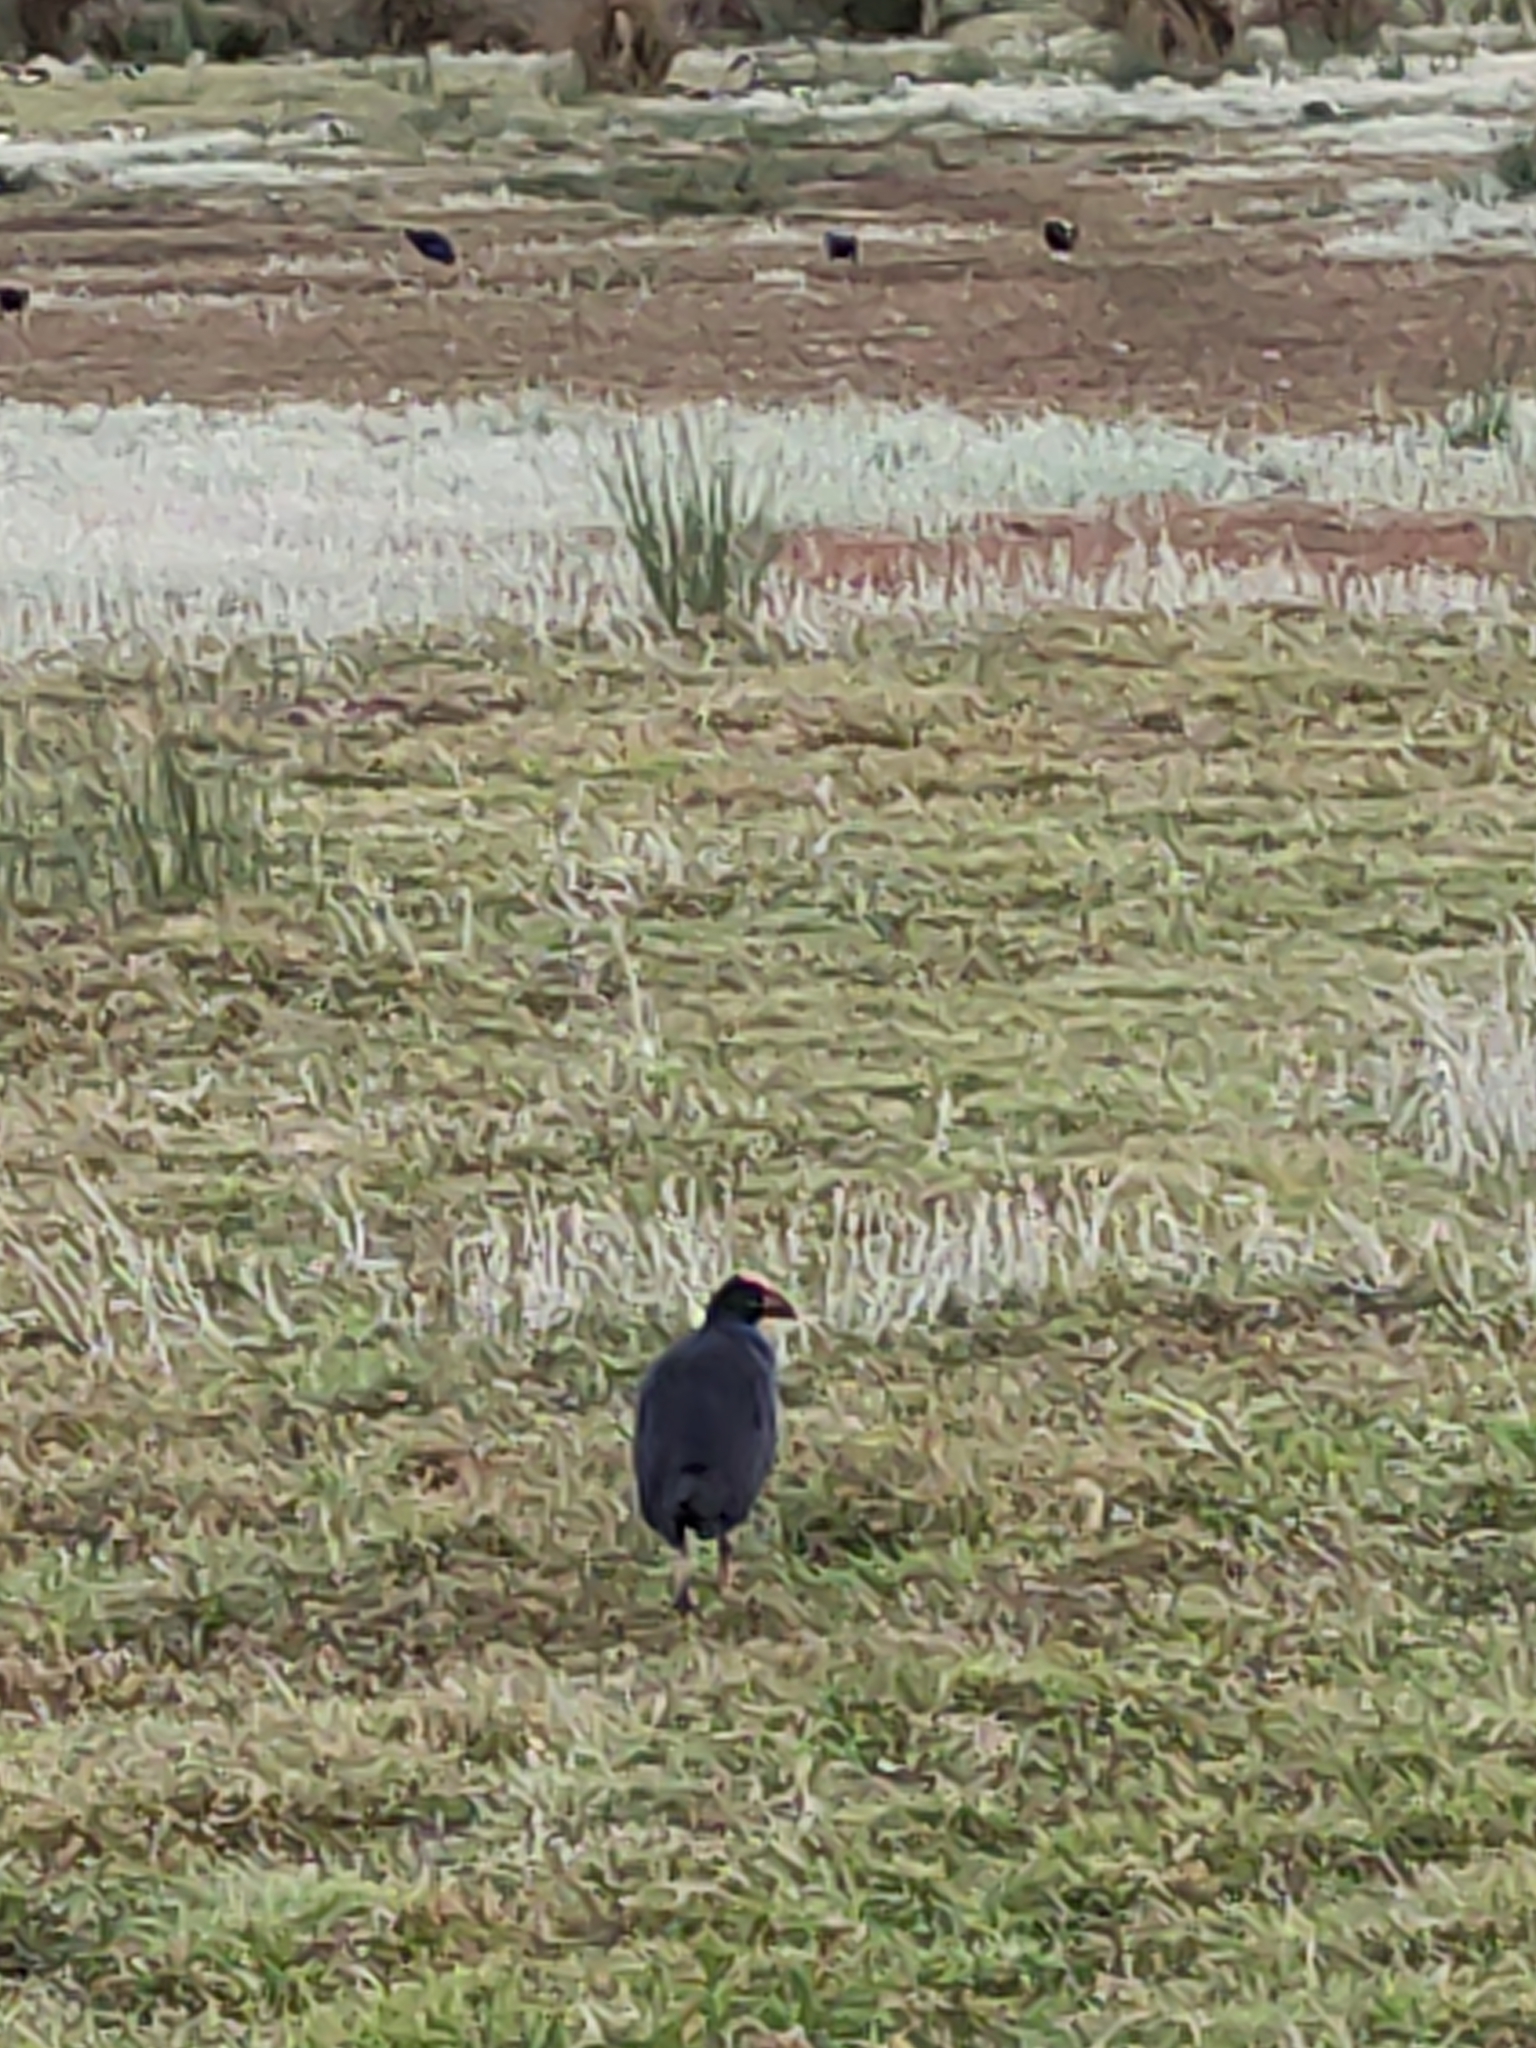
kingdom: Animalia
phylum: Chordata
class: Aves
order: Gruiformes
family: Rallidae
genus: Porphyrio
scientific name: Porphyrio melanotus
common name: Australasian swamphen
